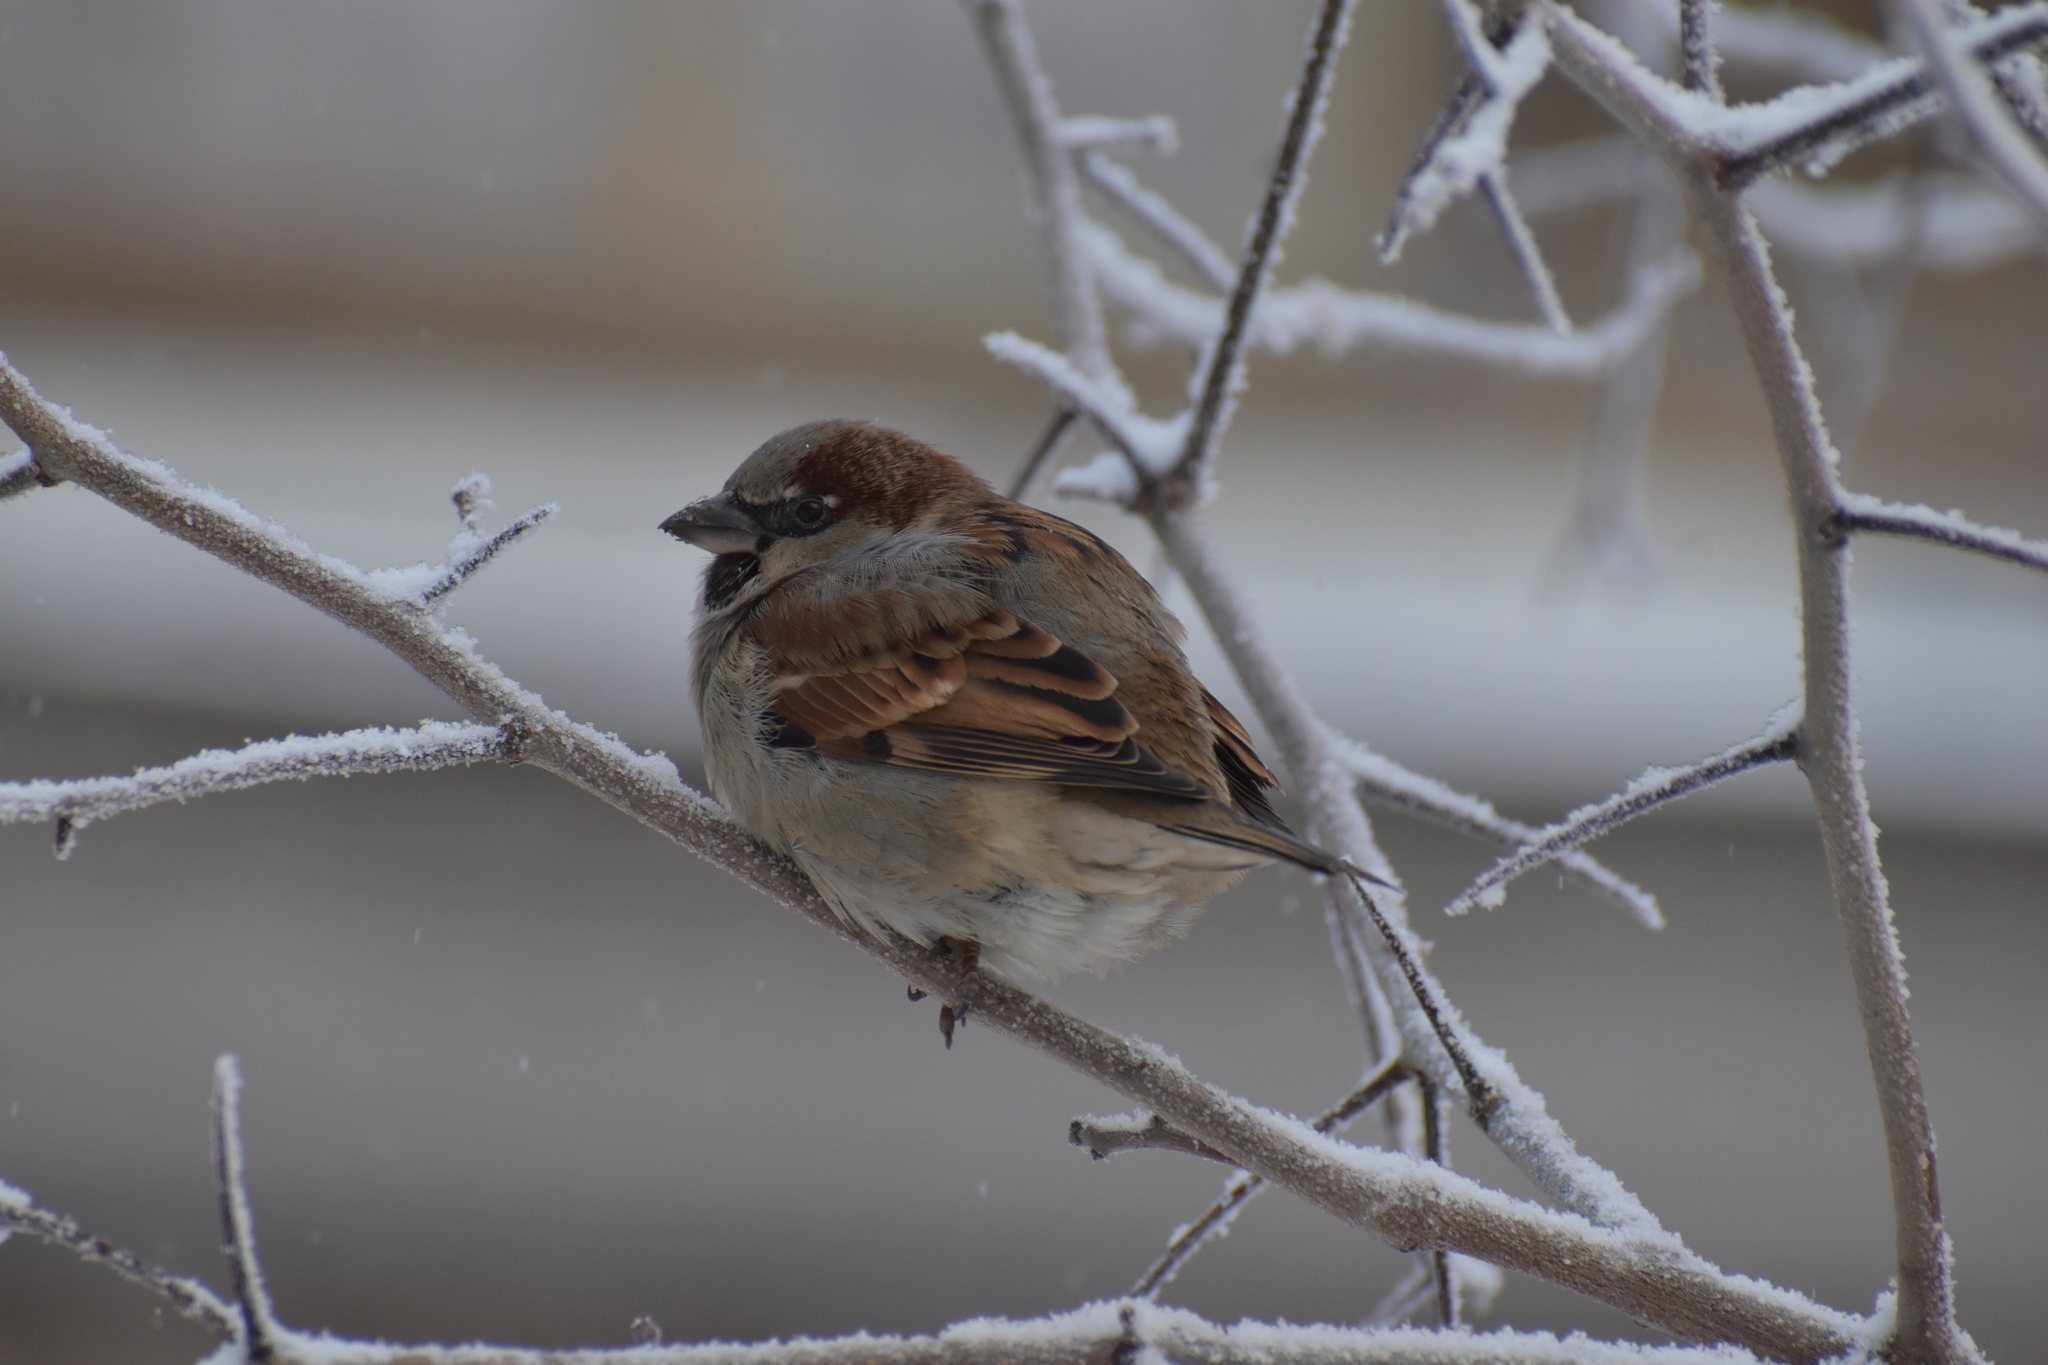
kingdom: Animalia
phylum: Chordata
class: Aves
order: Passeriformes
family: Passeridae
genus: Passer
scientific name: Passer domesticus
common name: House sparrow
